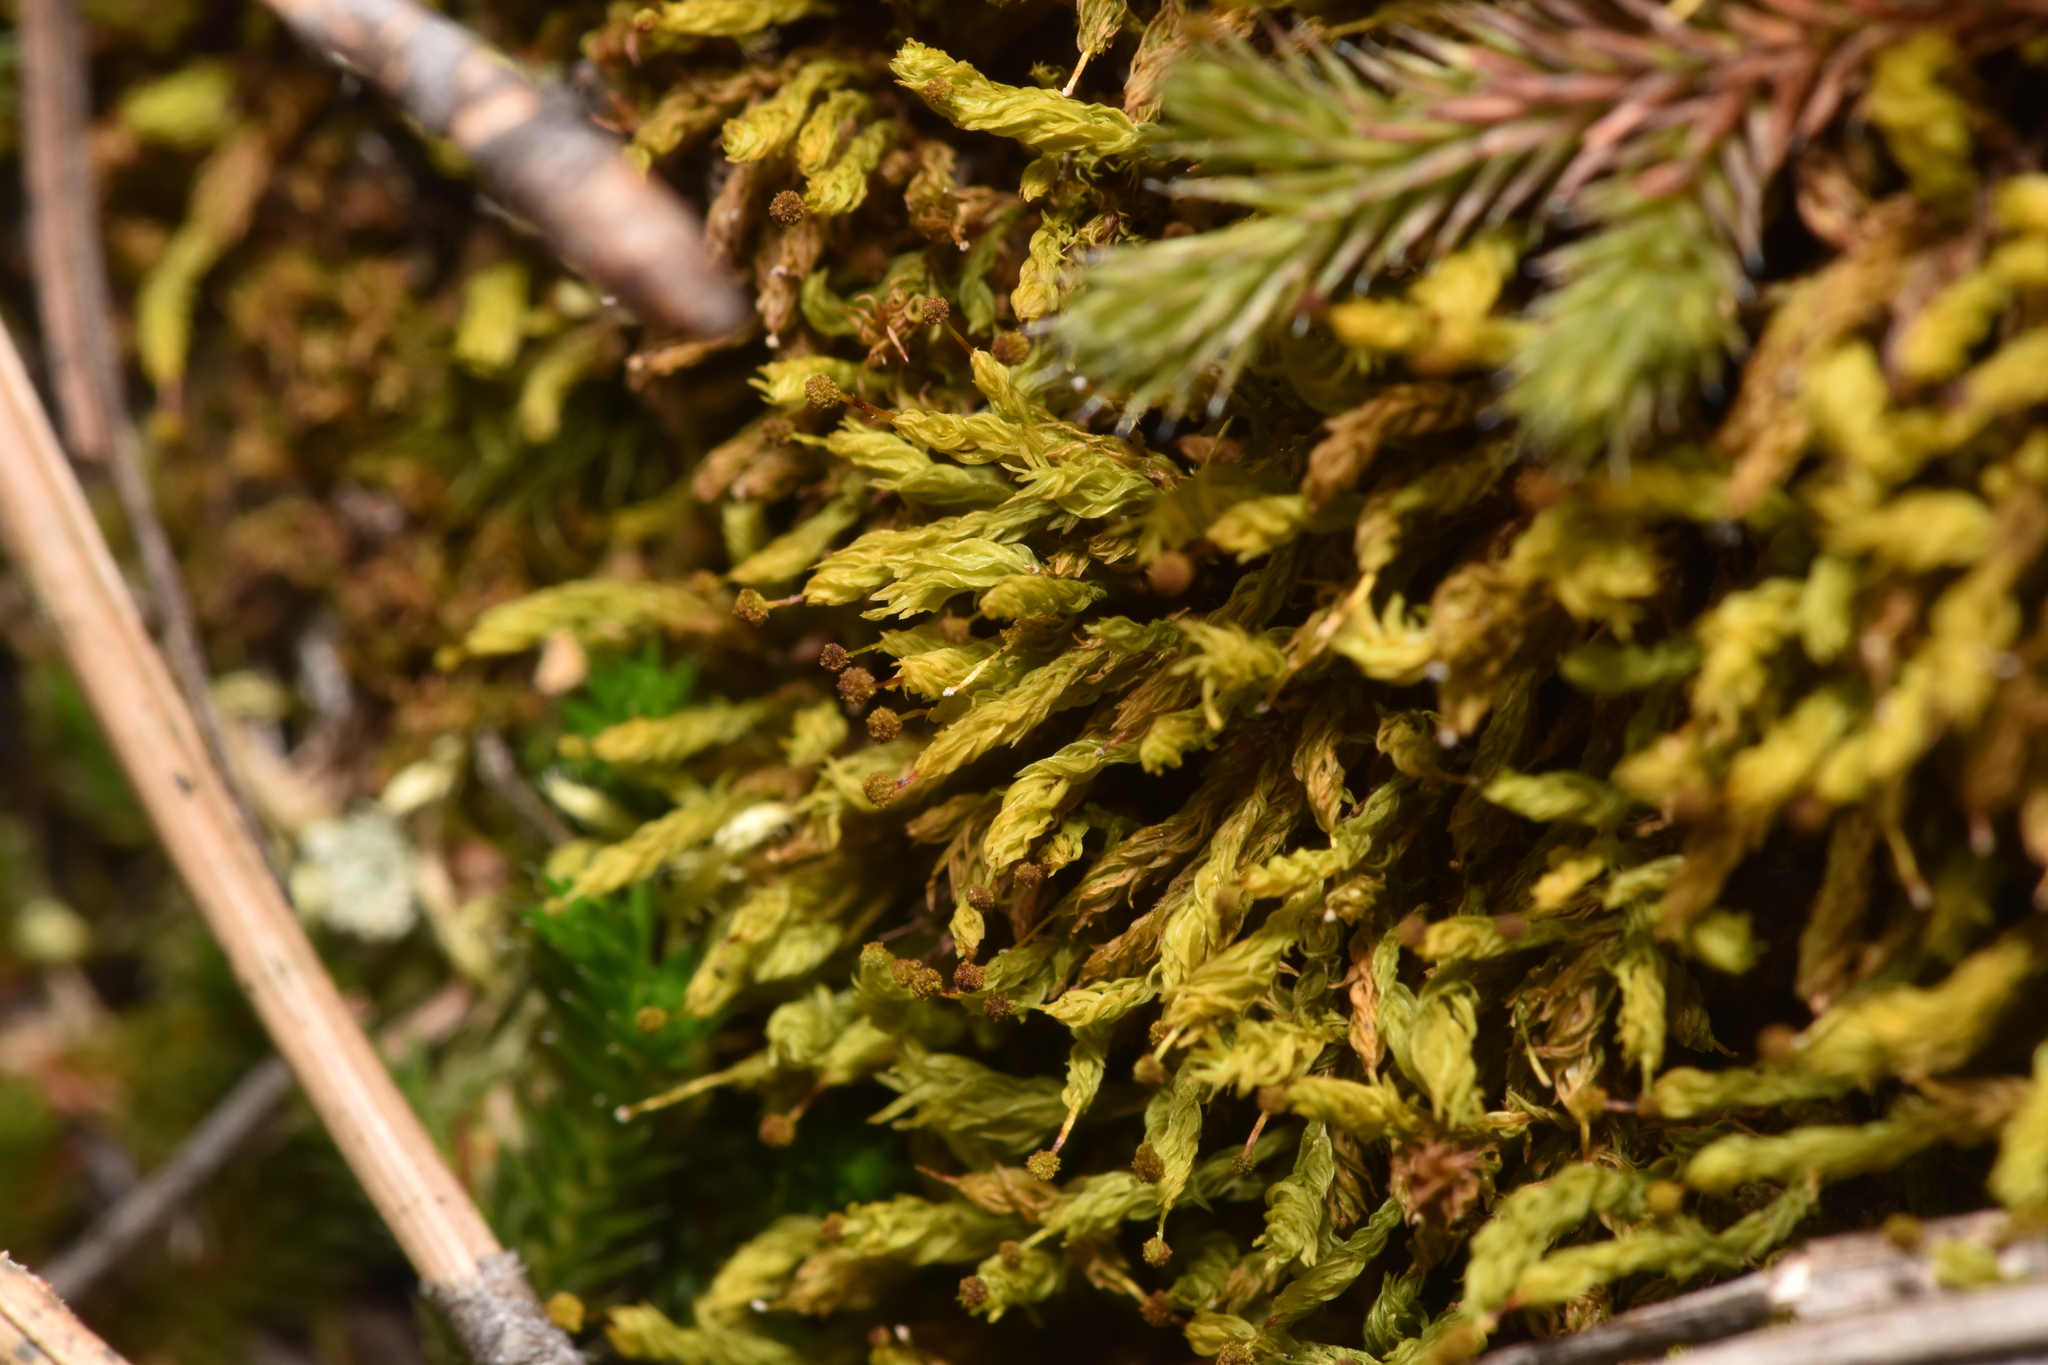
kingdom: Plantae
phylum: Bryophyta
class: Bryopsida
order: Aulacomniales
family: Aulacomniaceae
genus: Aulacomnium
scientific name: Aulacomnium androgynum
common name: Little groove moss
